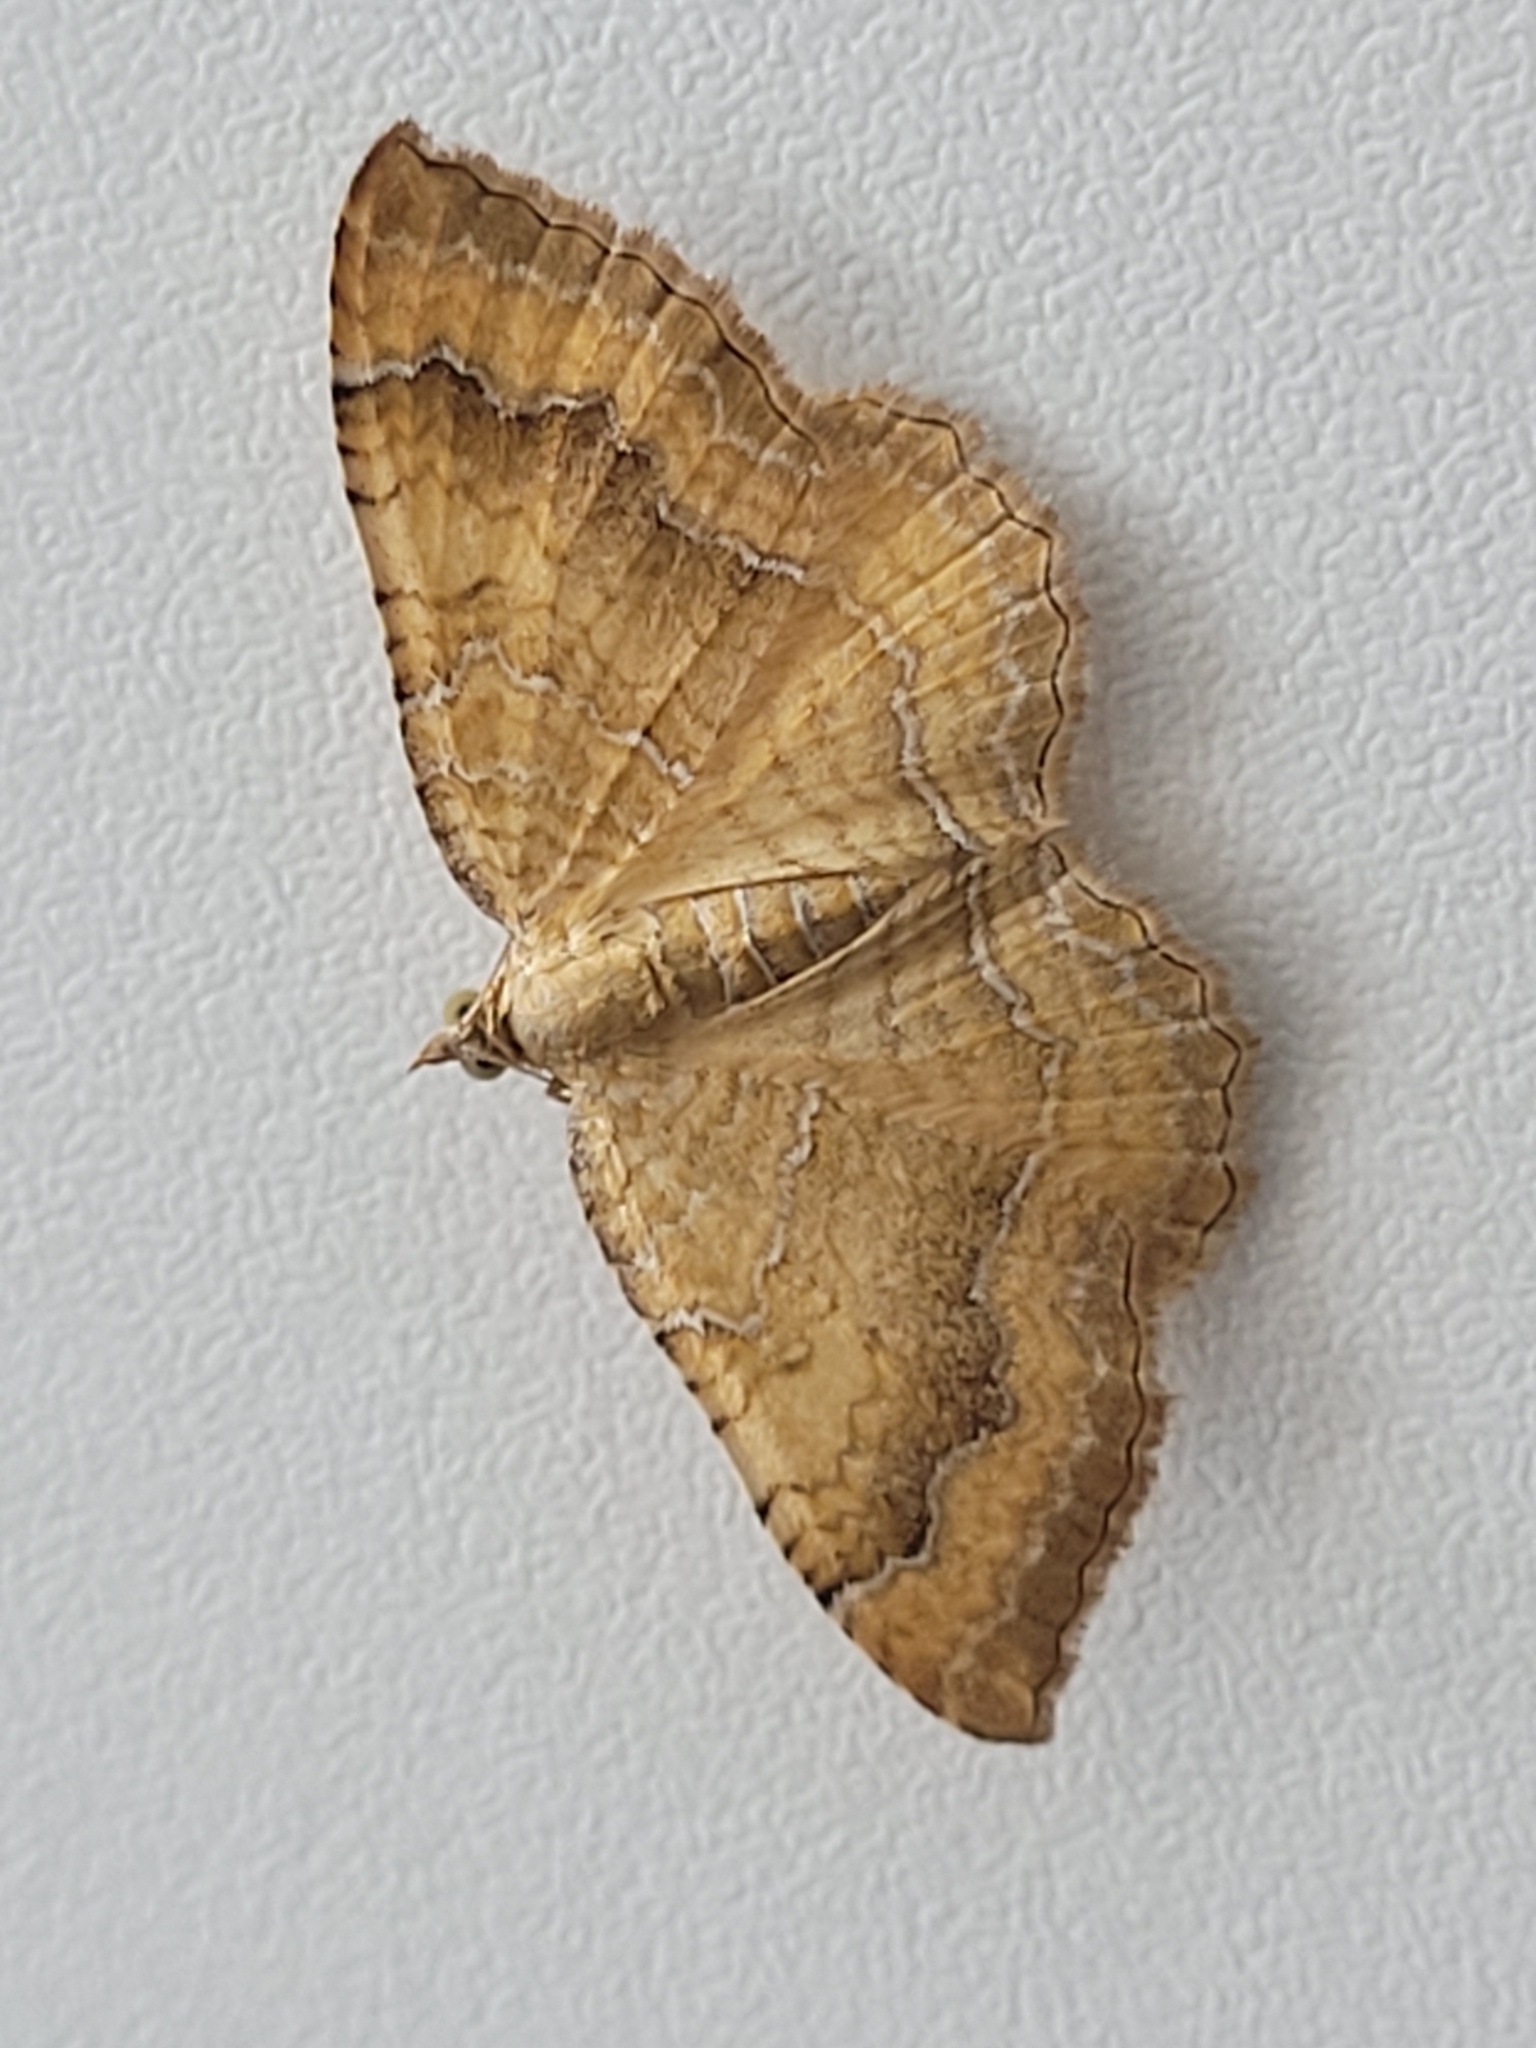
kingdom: Animalia
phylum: Arthropoda
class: Insecta
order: Lepidoptera
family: Geometridae
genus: Camptogramma
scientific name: Camptogramma bilineata
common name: Yellow shell
